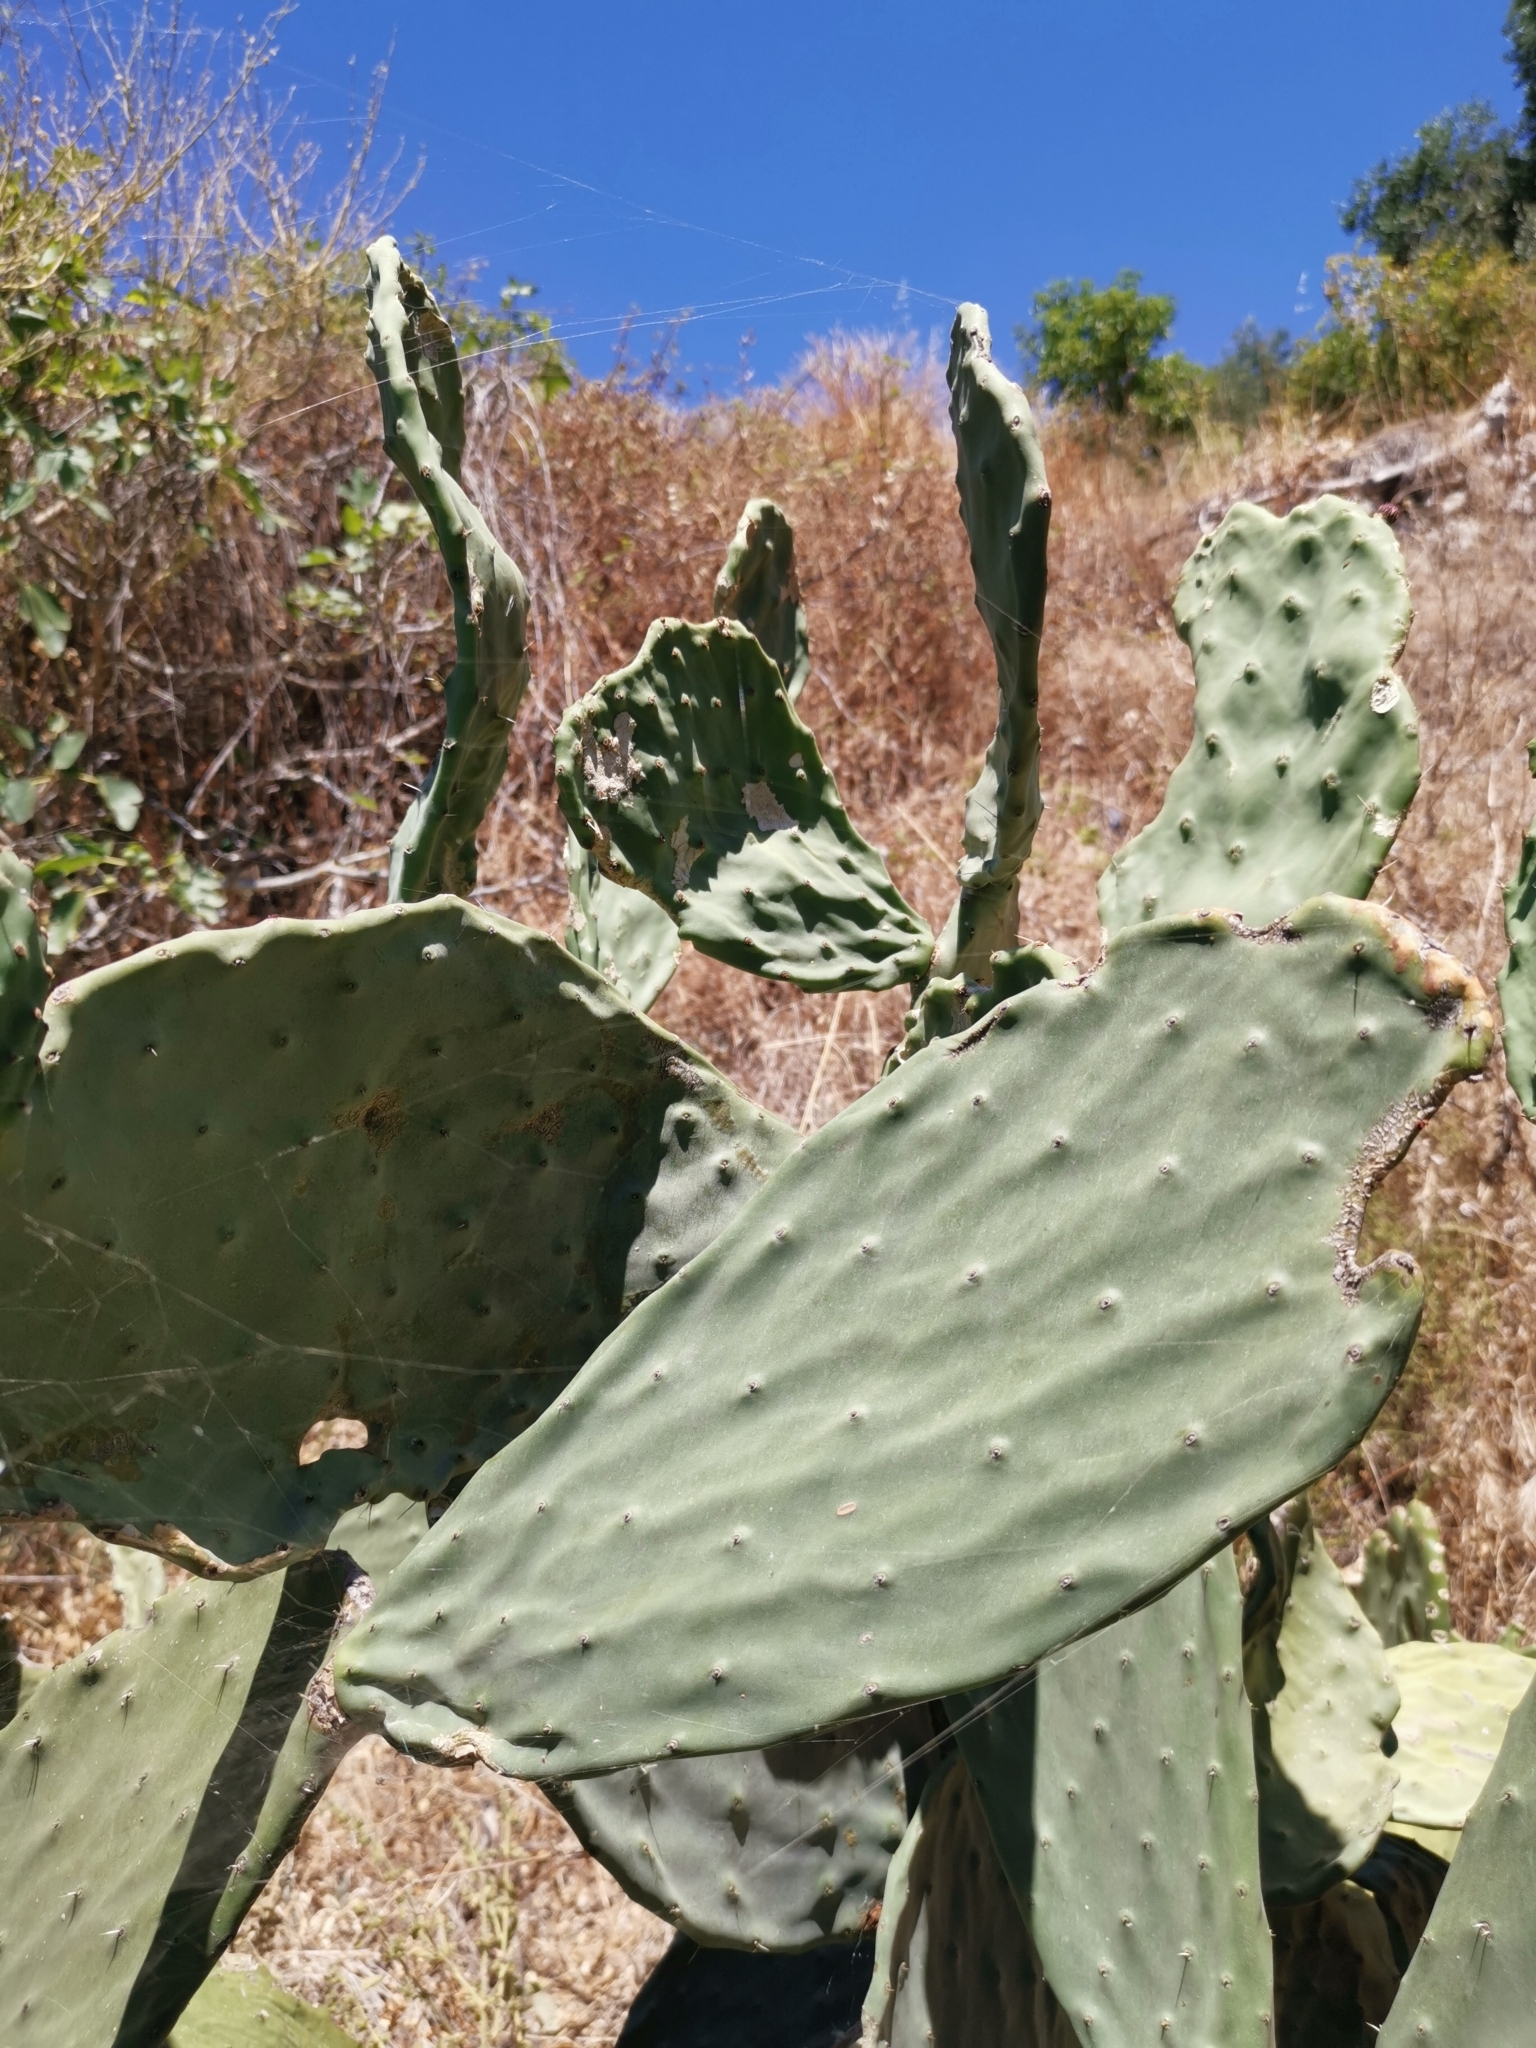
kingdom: Plantae
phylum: Tracheophyta
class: Magnoliopsida
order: Caryophyllales
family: Cactaceae
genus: Opuntia
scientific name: Opuntia ficus-indica
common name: Barbary fig
